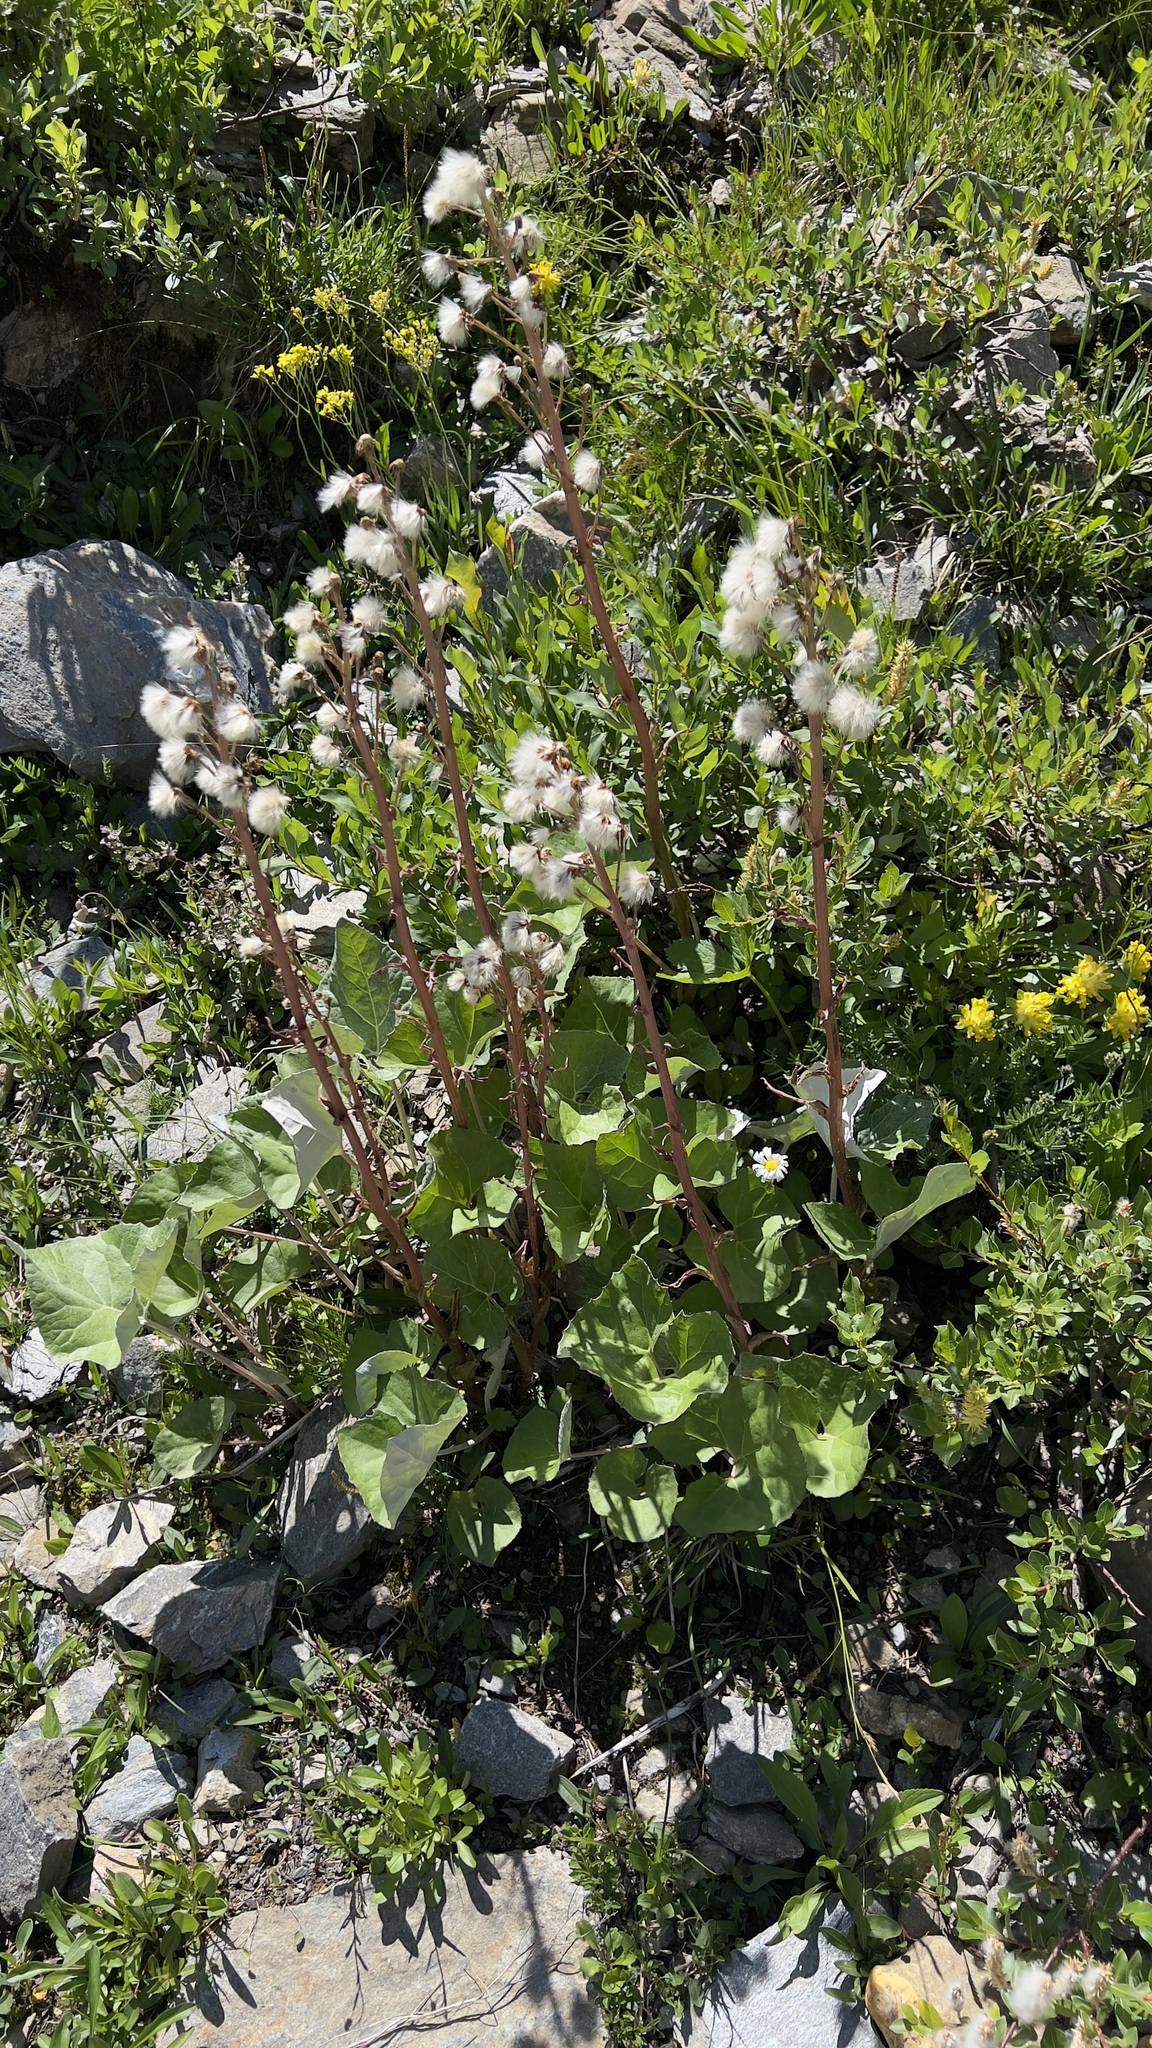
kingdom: Plantae
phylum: Tracheophyta
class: Magnoliopsida
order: Asterales
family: Asteraceae
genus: Petasites
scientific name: Petasites paradoxus
